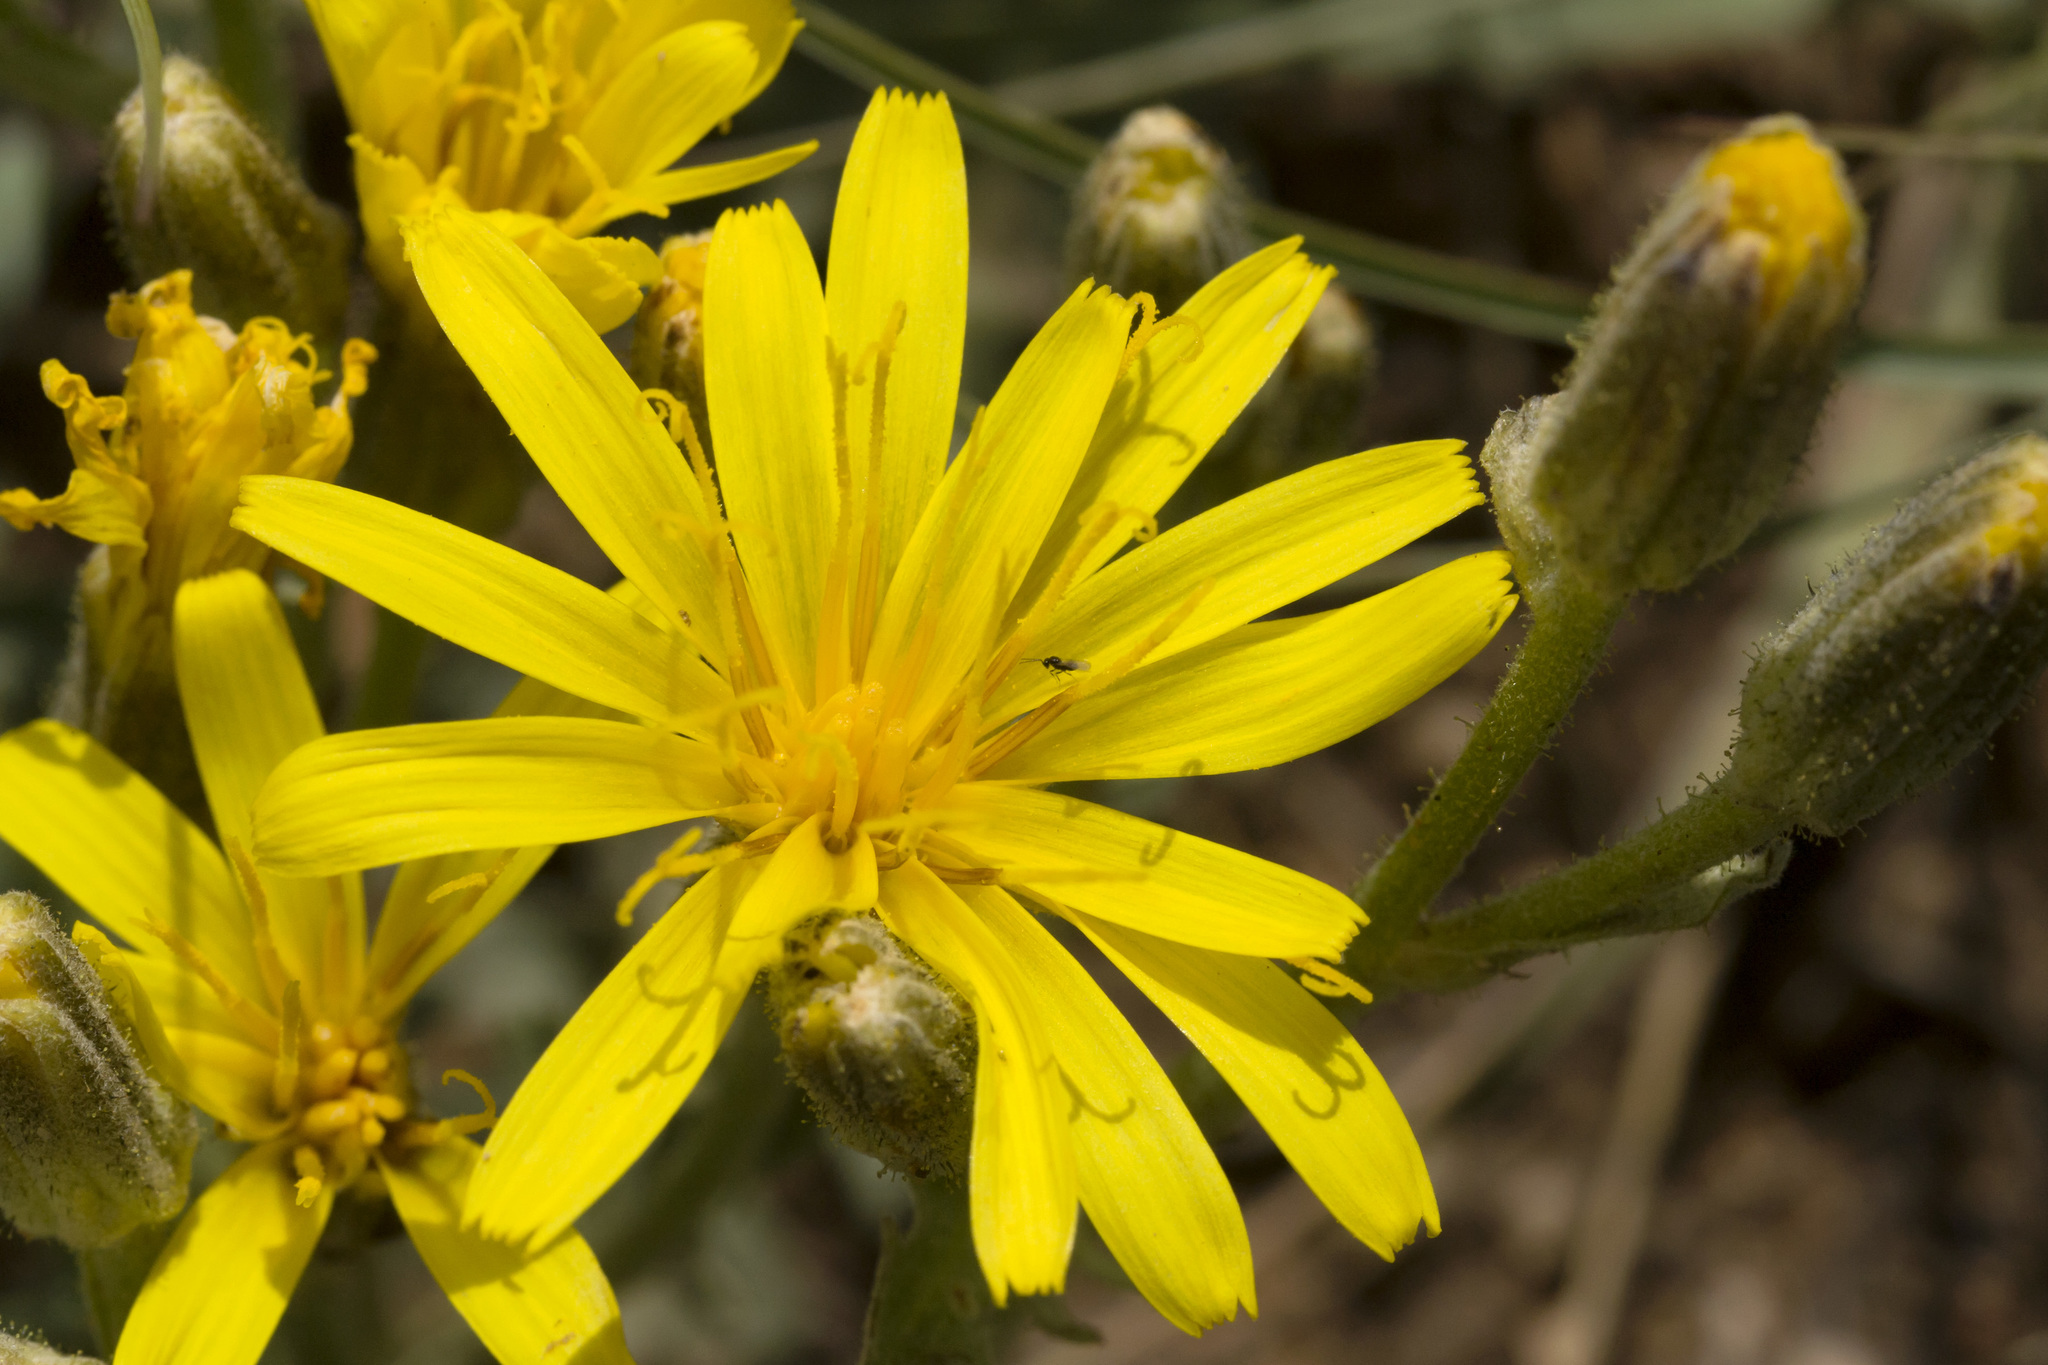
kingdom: Plantae
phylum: Tracheophyta
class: Magnoliopsida
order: Asterales
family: Asteraceae
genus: Crepis
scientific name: Crepis occidentalis
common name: Gray hawk's-beard
